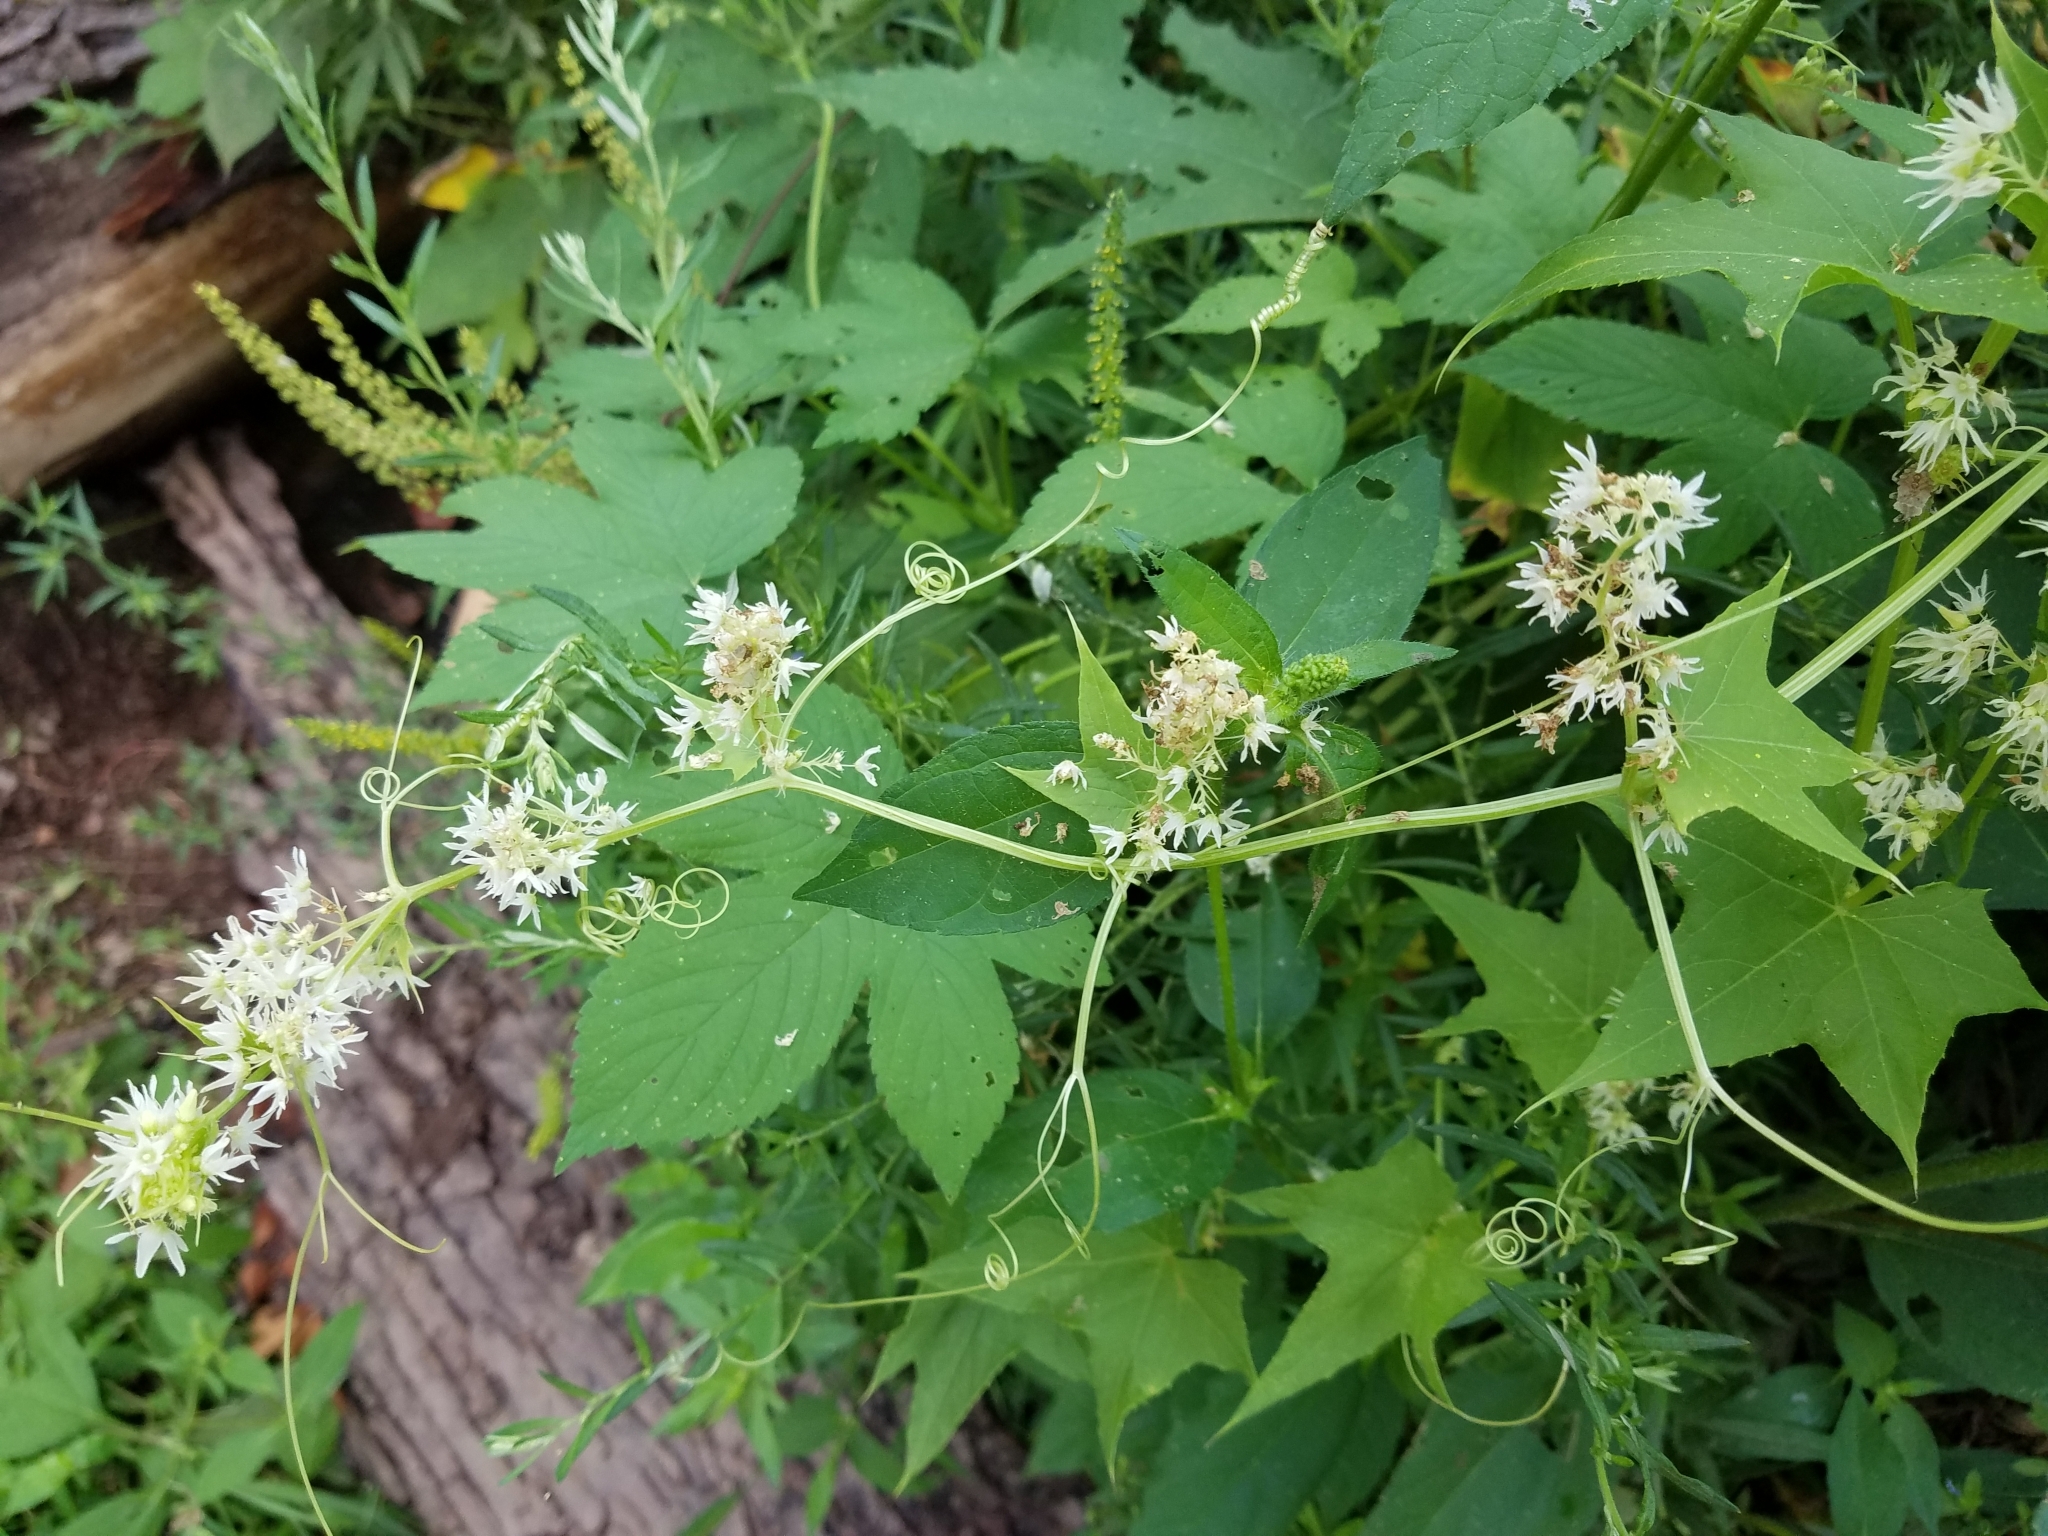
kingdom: Plantae
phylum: Tracheophyta
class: Magnoliopsida
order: Cucurbitales
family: Cucurbitaceae
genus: Echinocystis
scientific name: Echinocystis lobata
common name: Wild cucumber
